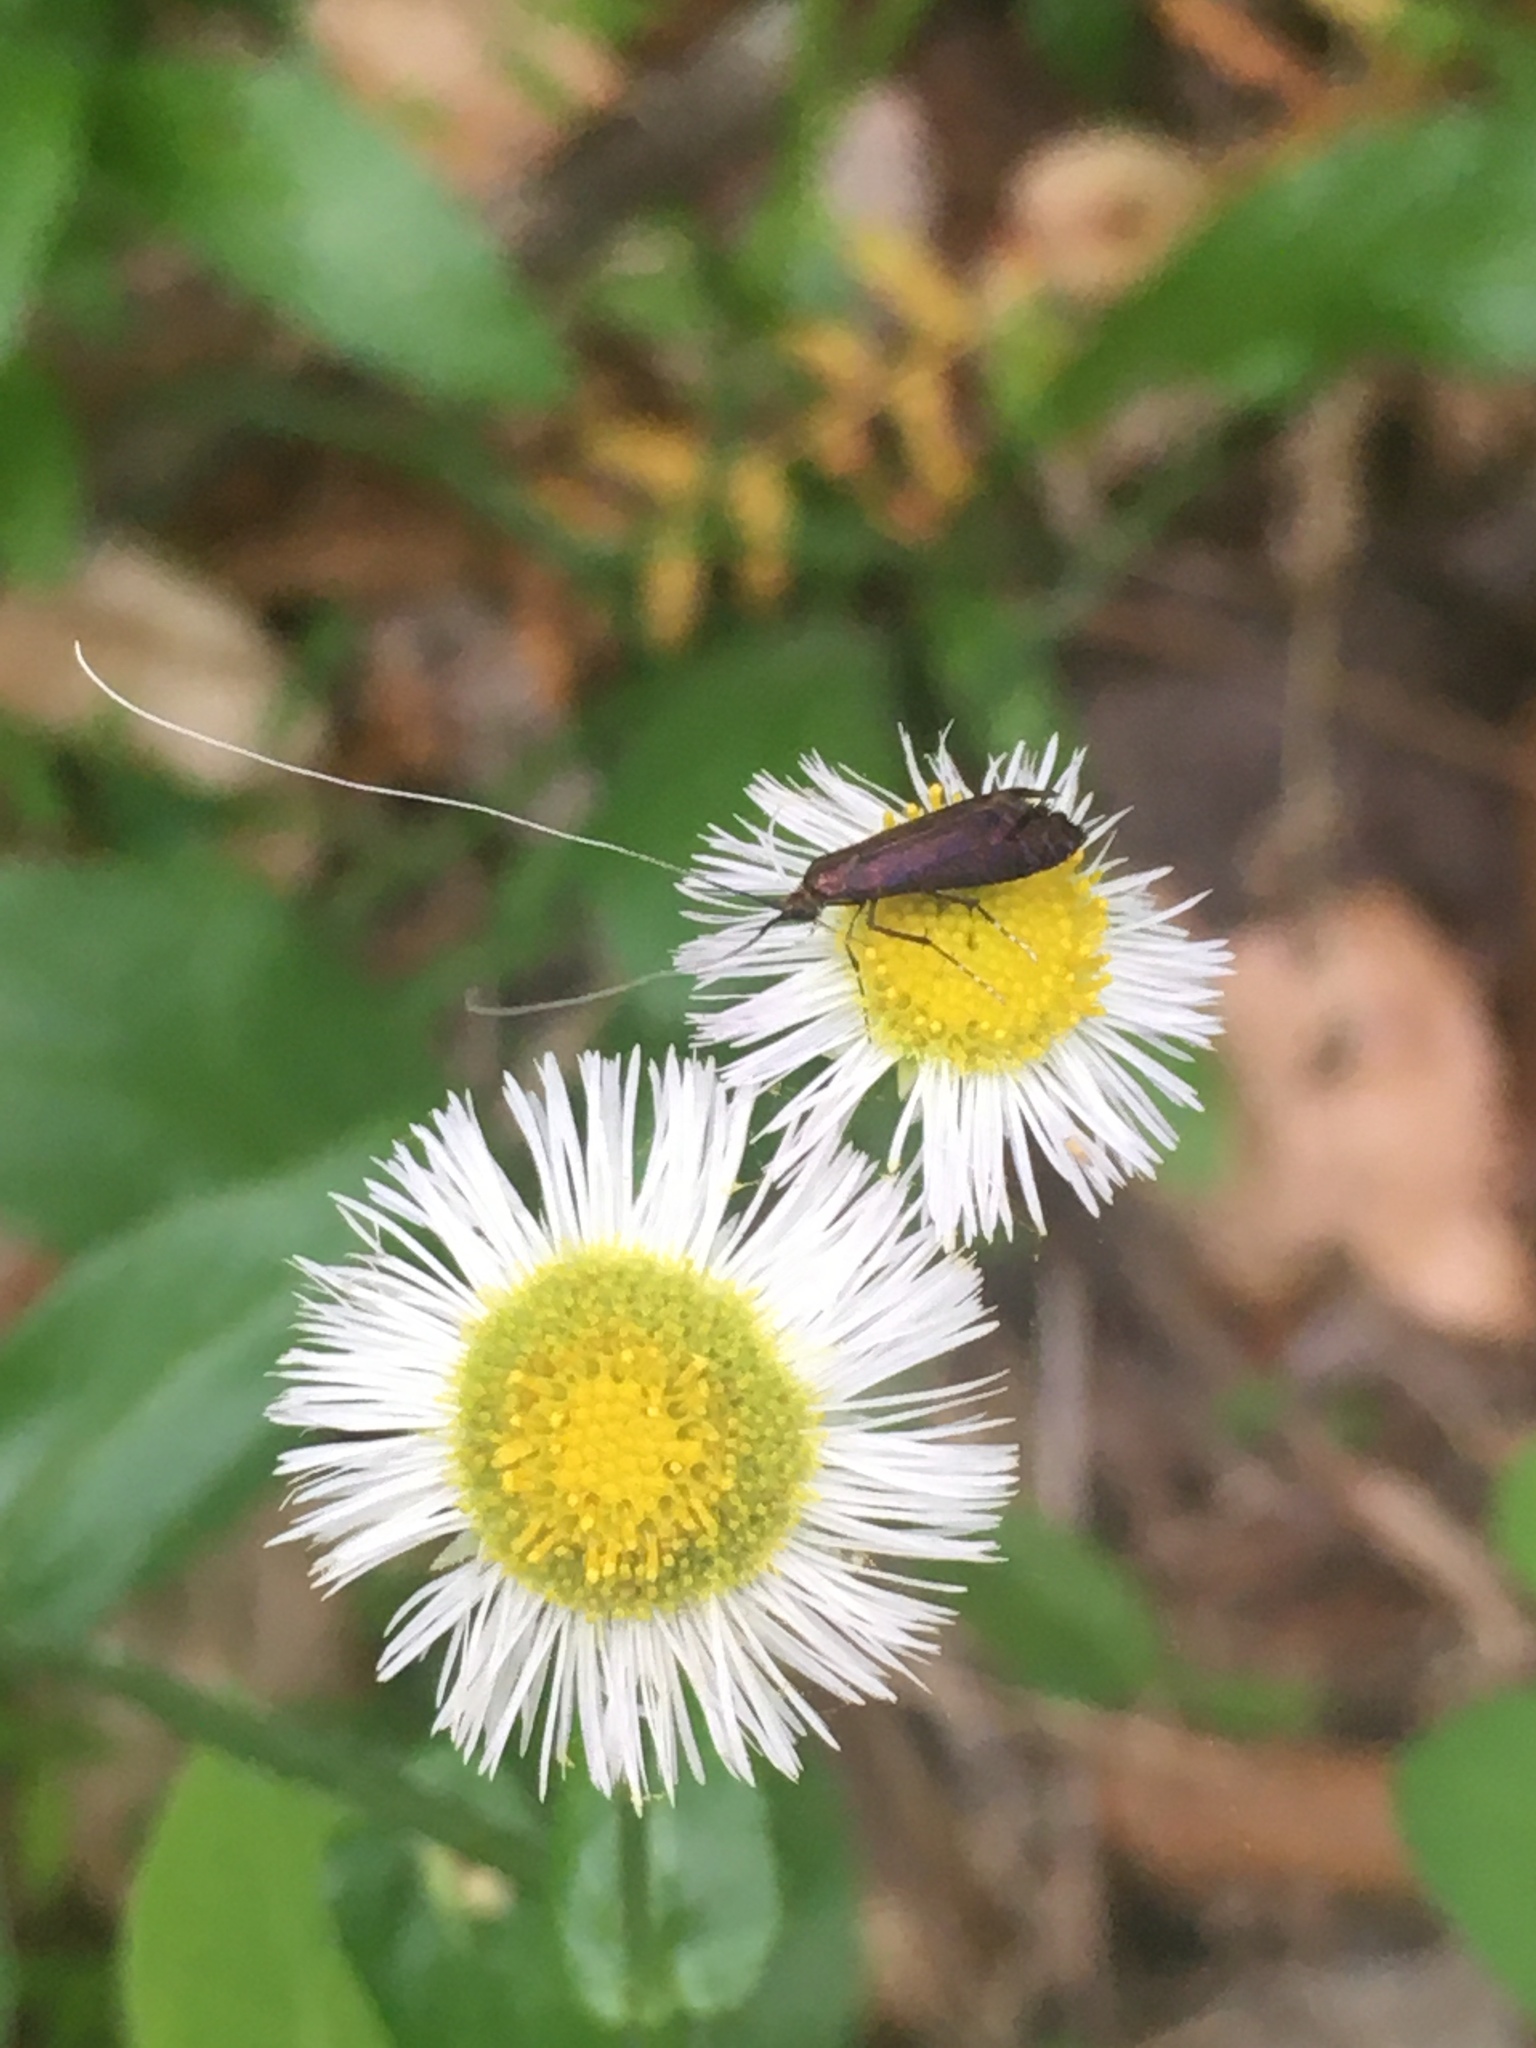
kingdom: Animalia
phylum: Arthropoda
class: Insecta
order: Lepidoptera
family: Adelidae
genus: Adela
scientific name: Adela caeruleella
